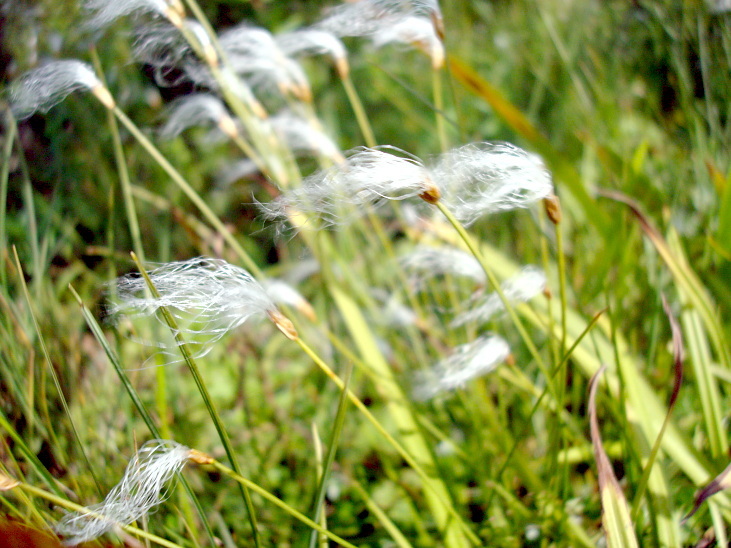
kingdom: Plantae
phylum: Tracheophyta
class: Liliopsida
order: Poales
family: Cyperaceae
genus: Trichophorum
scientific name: Trichophorum alpinum
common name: Alpine bulrush
